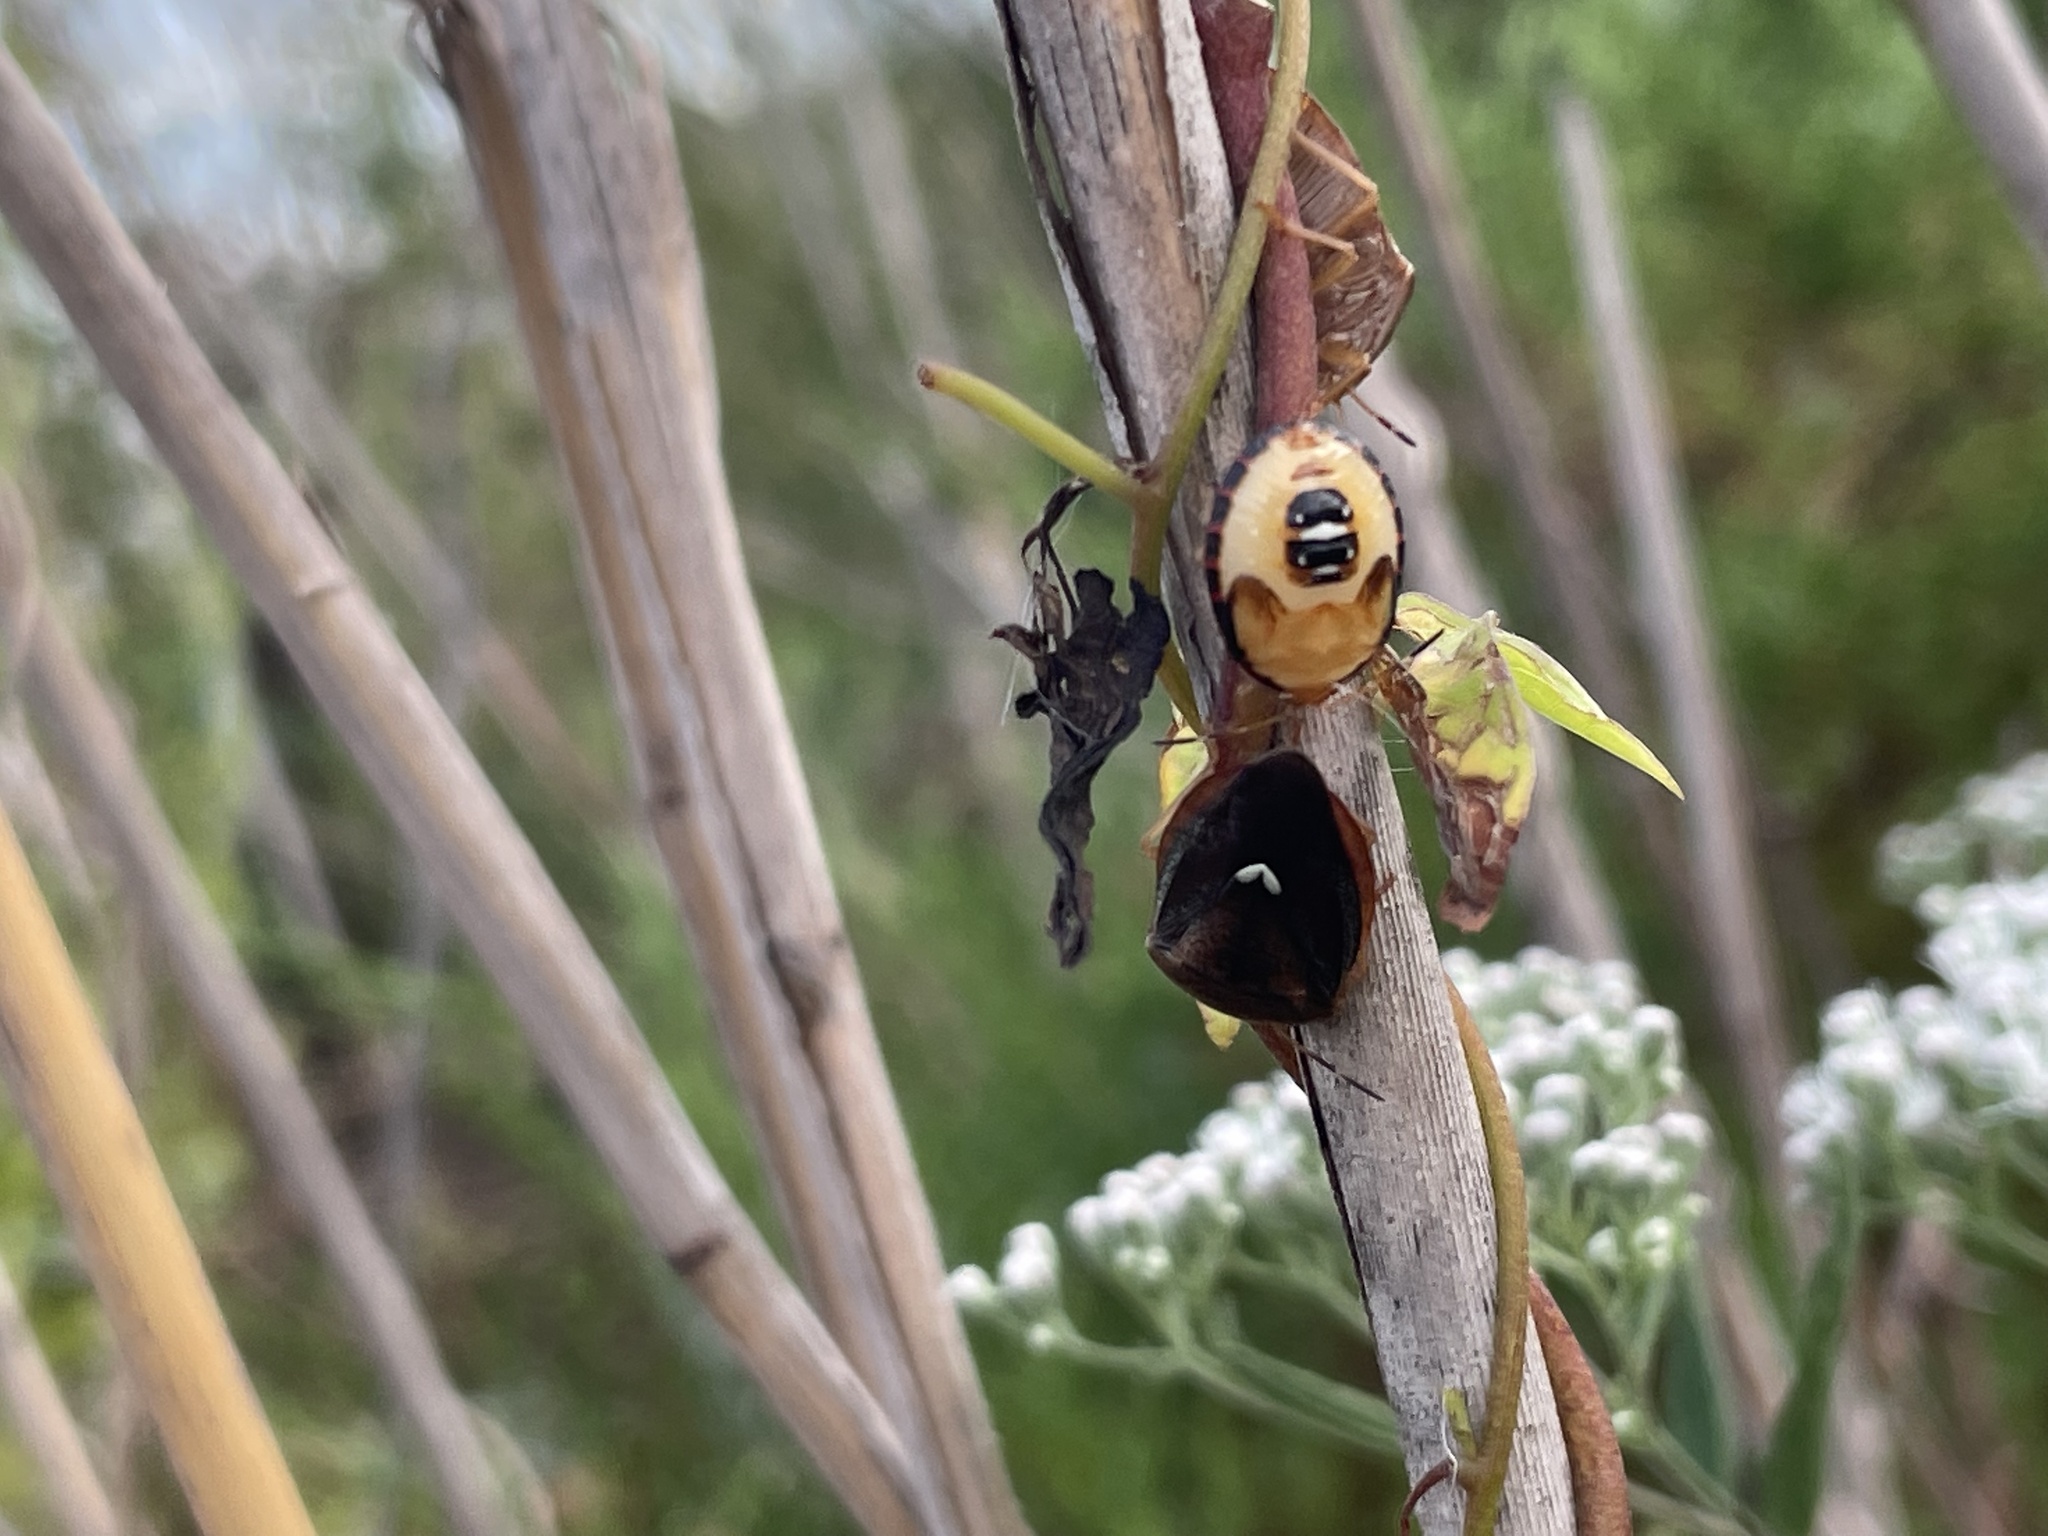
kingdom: Animalia
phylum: Arthropoda
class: Insecta
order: Hemiptera
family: Pentatomidae
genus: Edessa
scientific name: Edessa bifida
